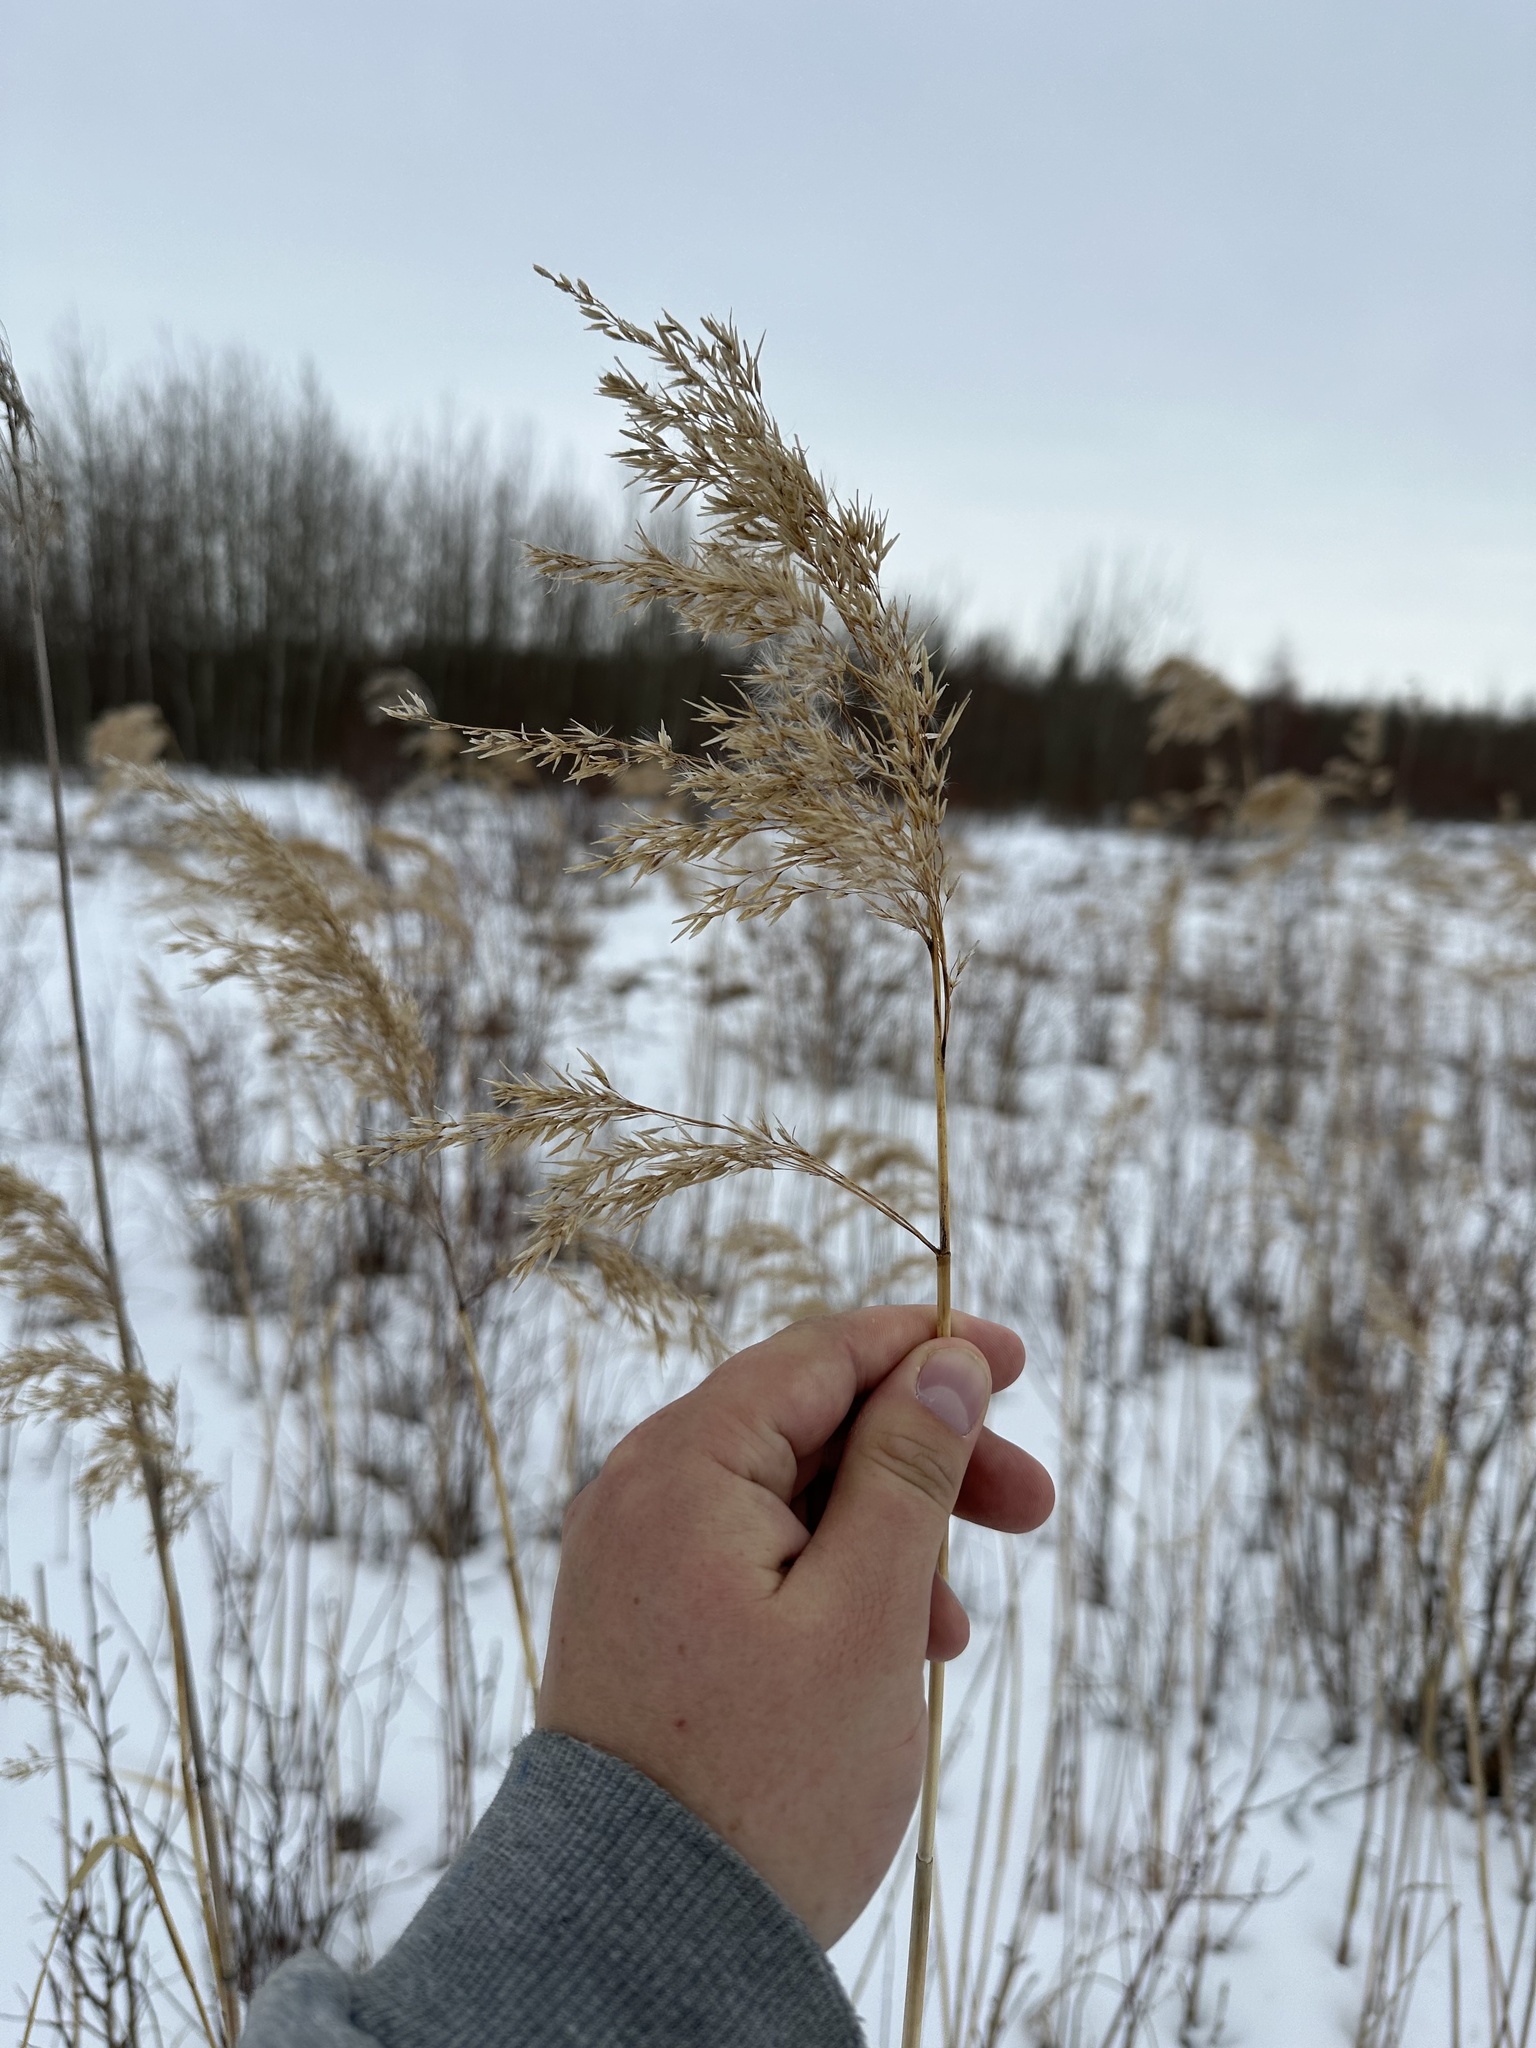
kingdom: Plantae
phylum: Tracheophyta
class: Liliopsida
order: Poales
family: Poaceae
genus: Phragmites
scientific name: Phragmites australis
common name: Common reed
